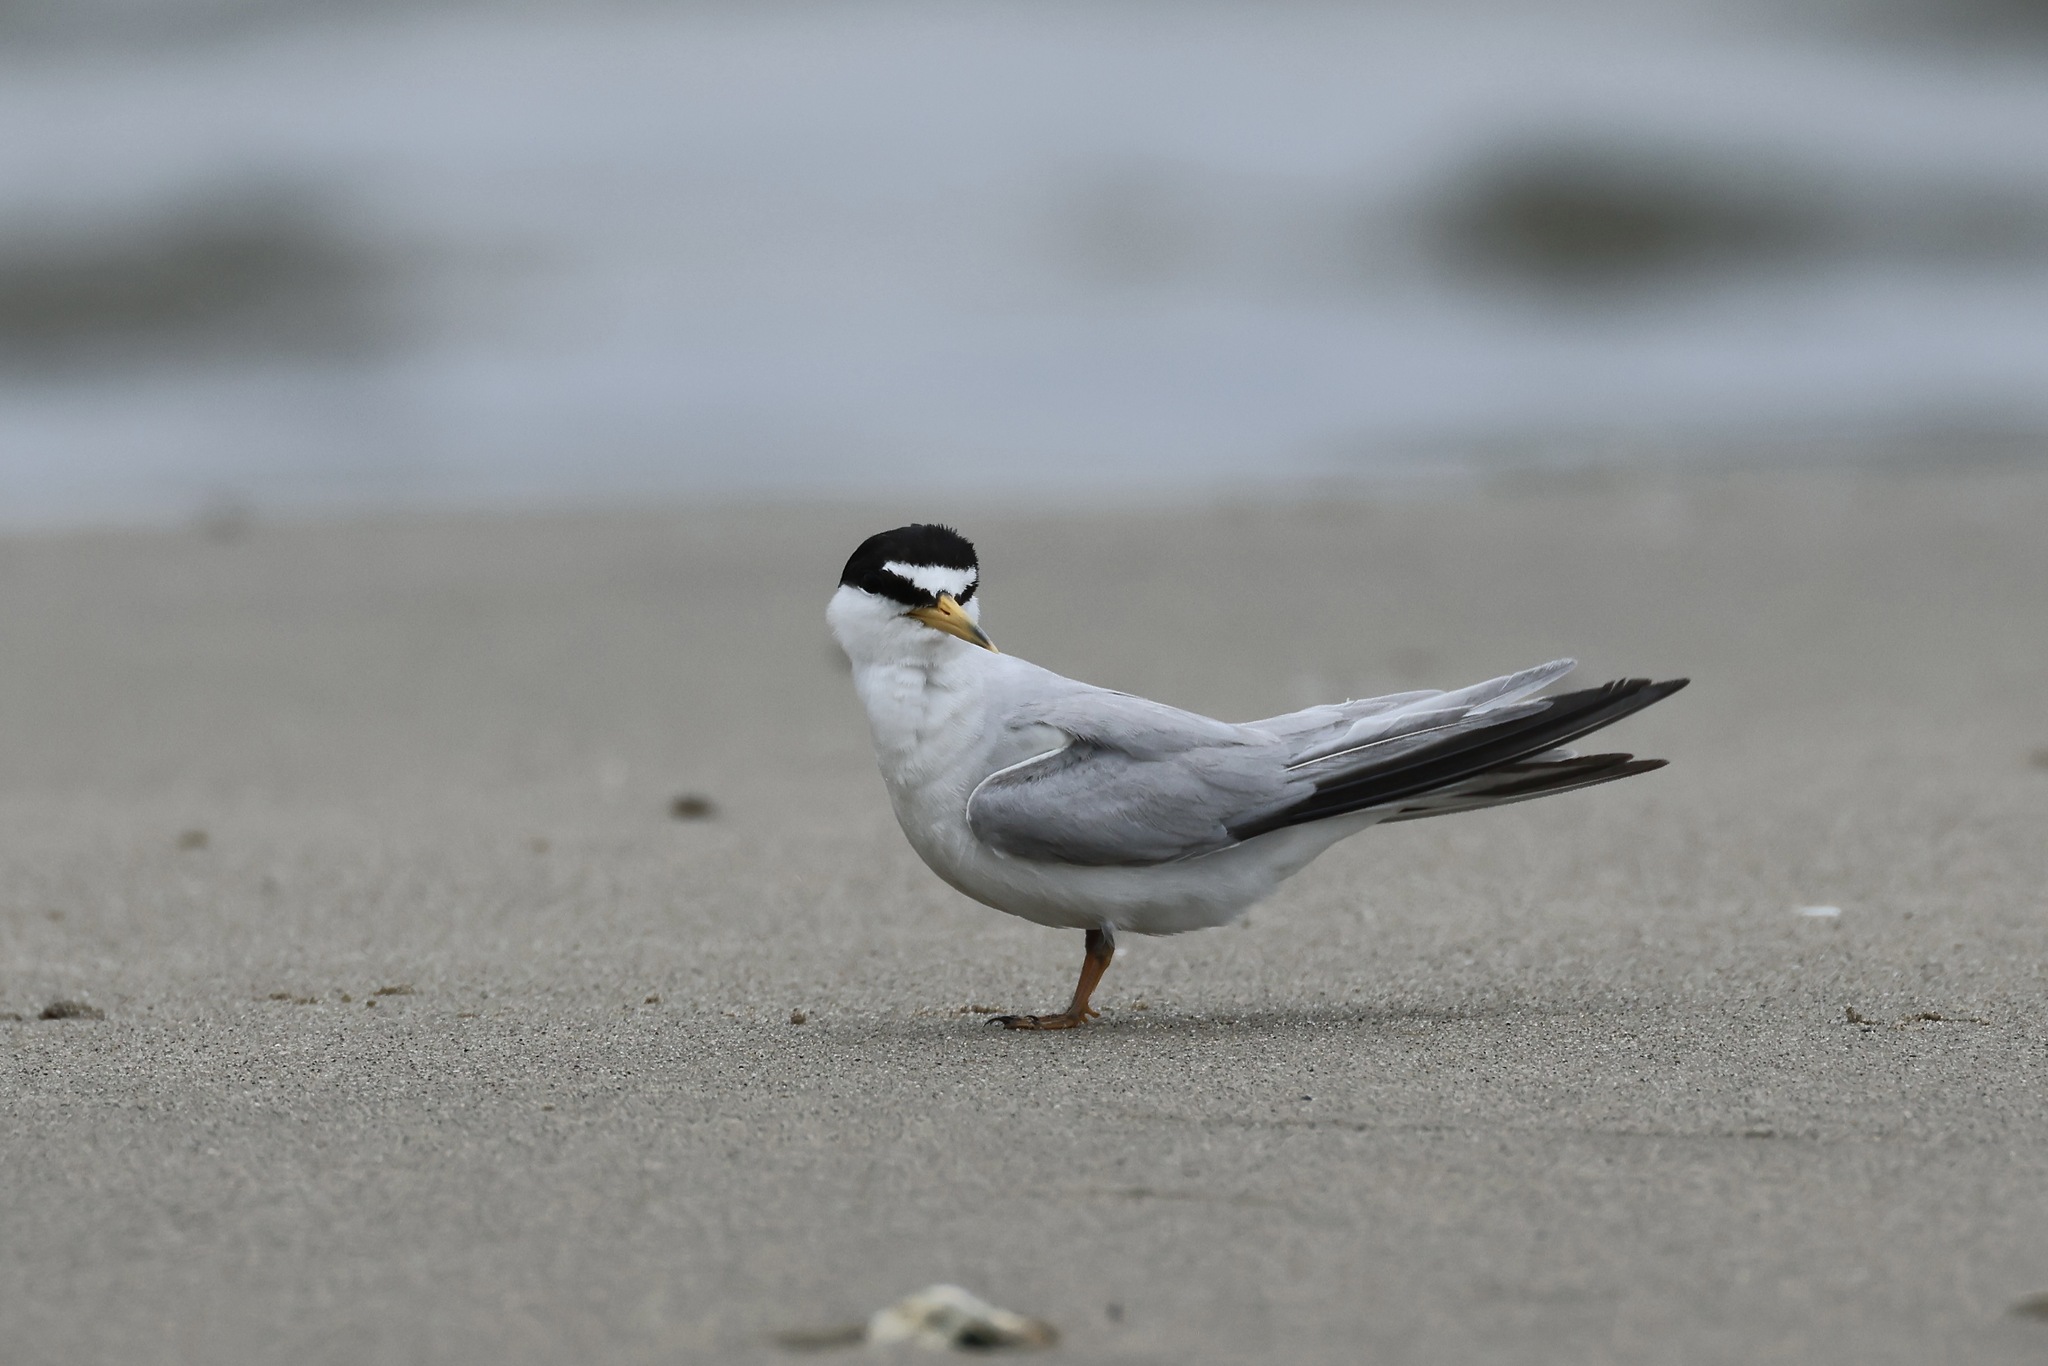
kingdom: Animalia
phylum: Chordata
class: Aves
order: Charadriiformes
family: Laridae
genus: Sternula
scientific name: Sternula antillarum
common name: Least tern
